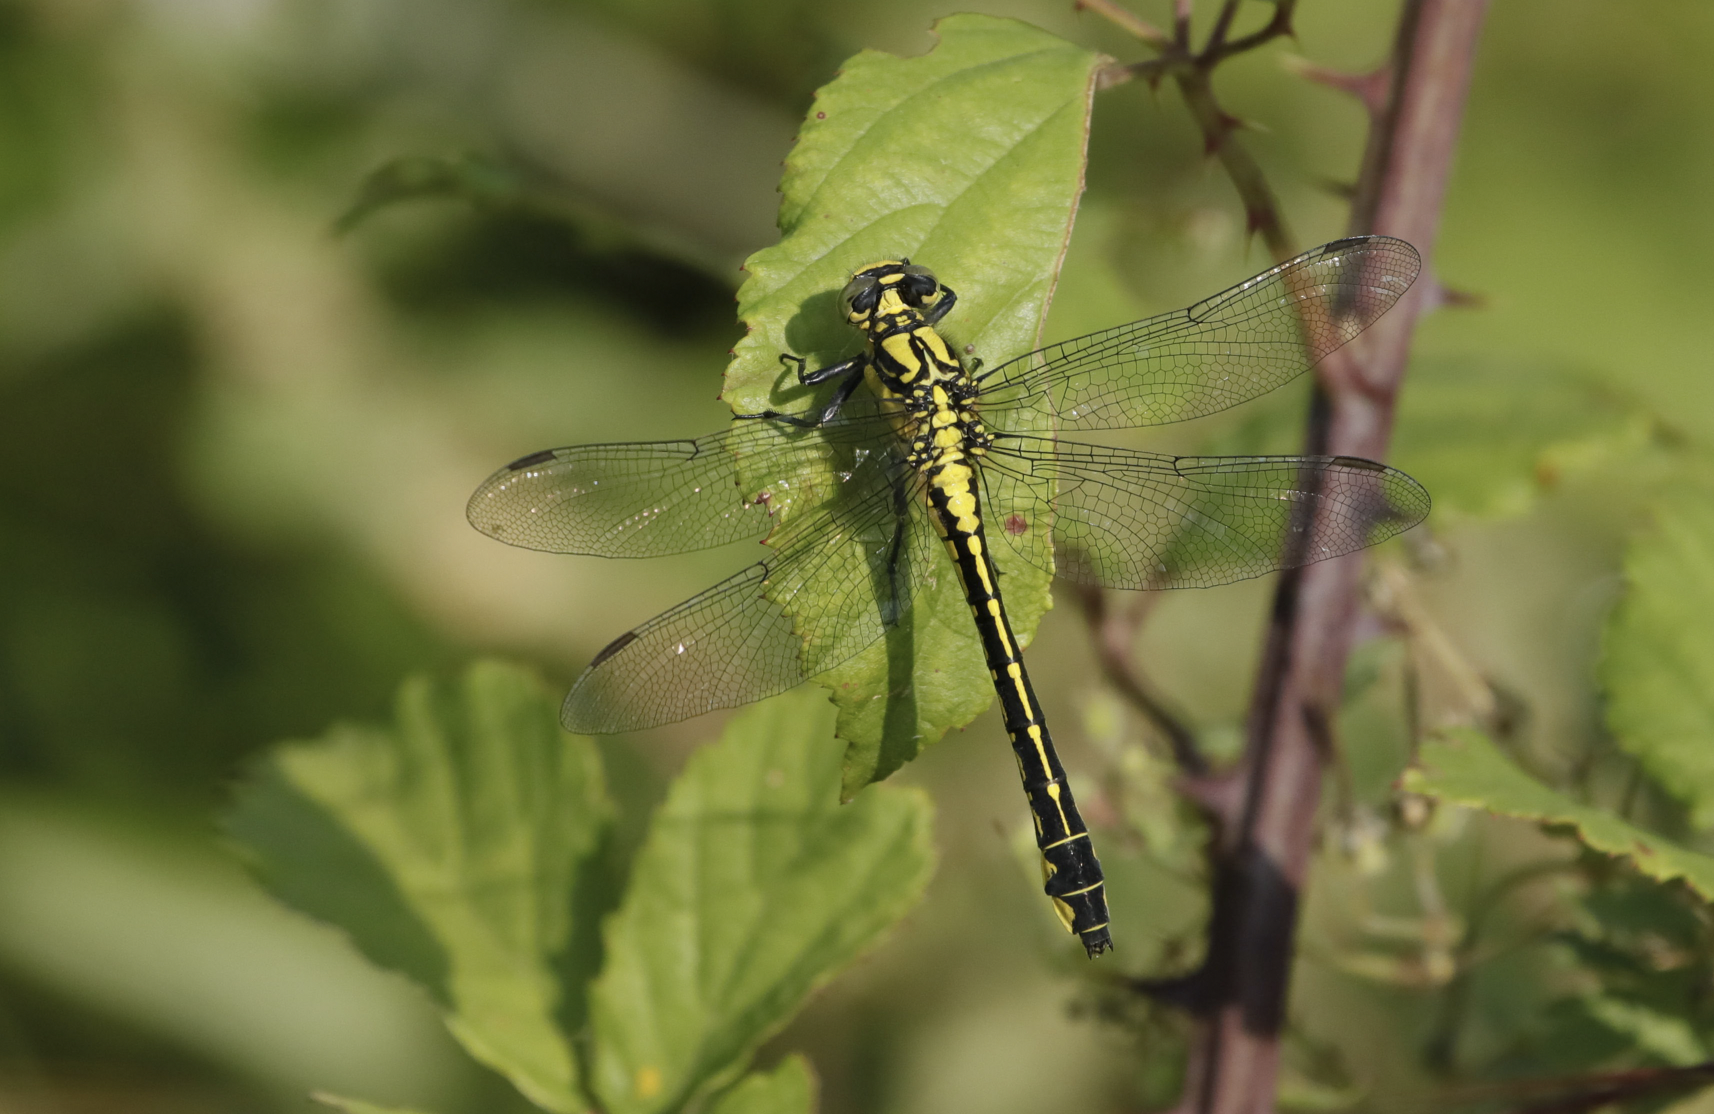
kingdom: Animalia
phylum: Arthropoda
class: Insecta
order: Odonata
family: Gomphidae
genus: Gomphus
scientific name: Gomphus vulgatissimus
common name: Club-tailed dragonfly
